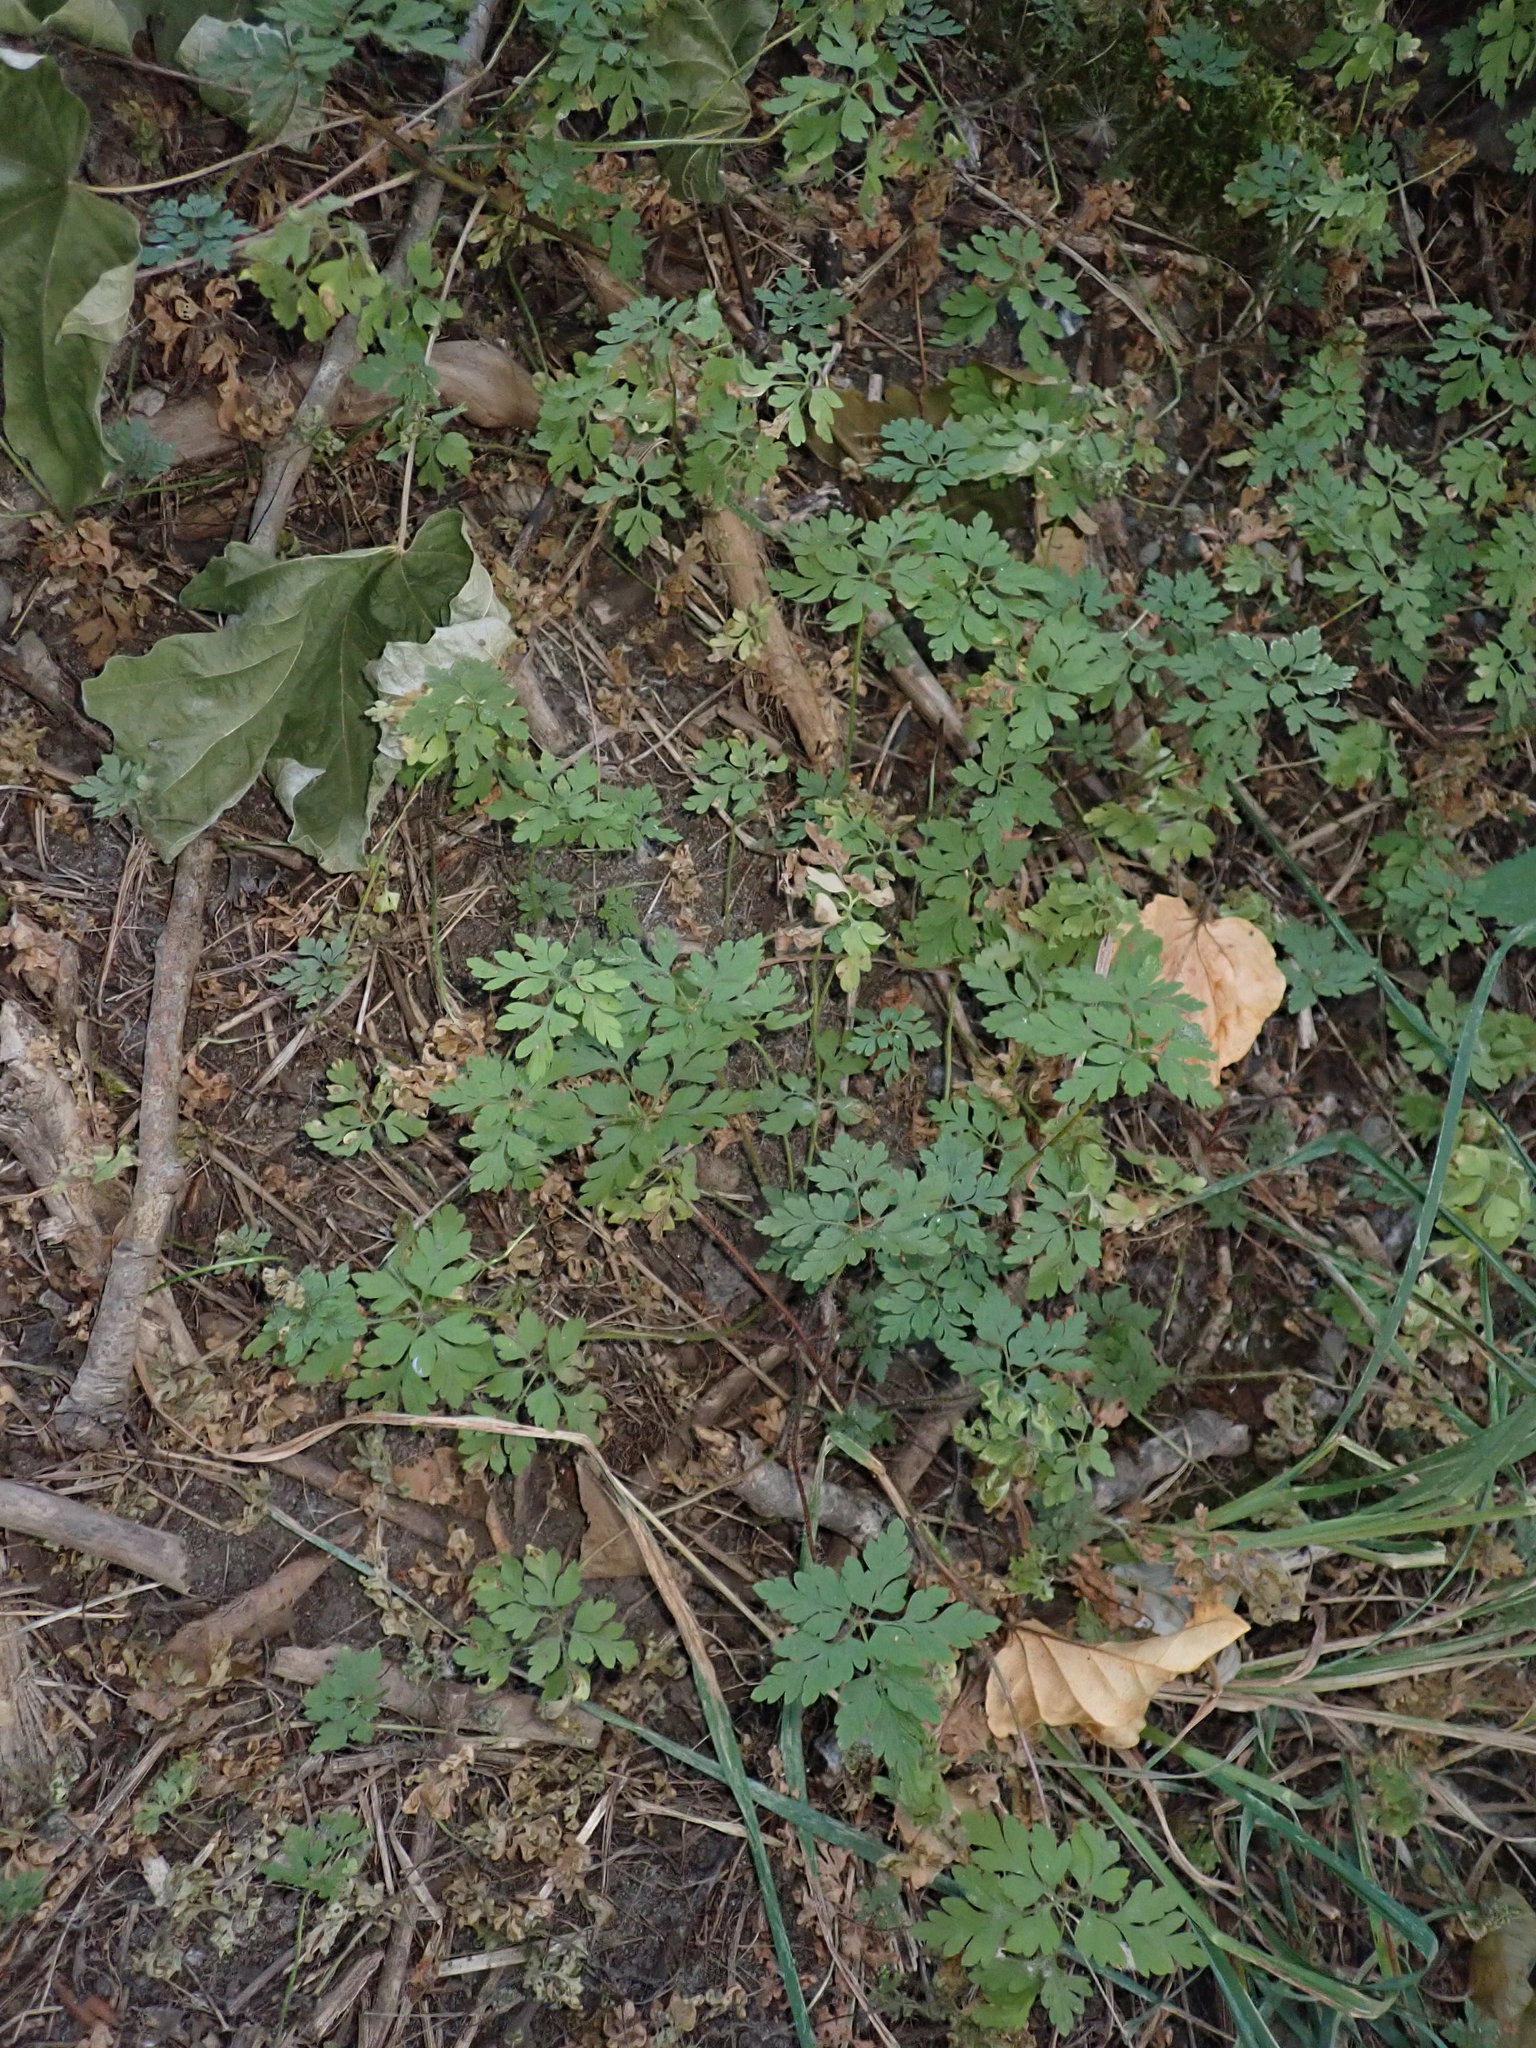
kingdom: Plantae
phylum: Tracheophyta
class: Magnoliopsida
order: Geraniales
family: Geraniaceae
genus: Geranium
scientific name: Geranium robertianum
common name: Herb-robert
